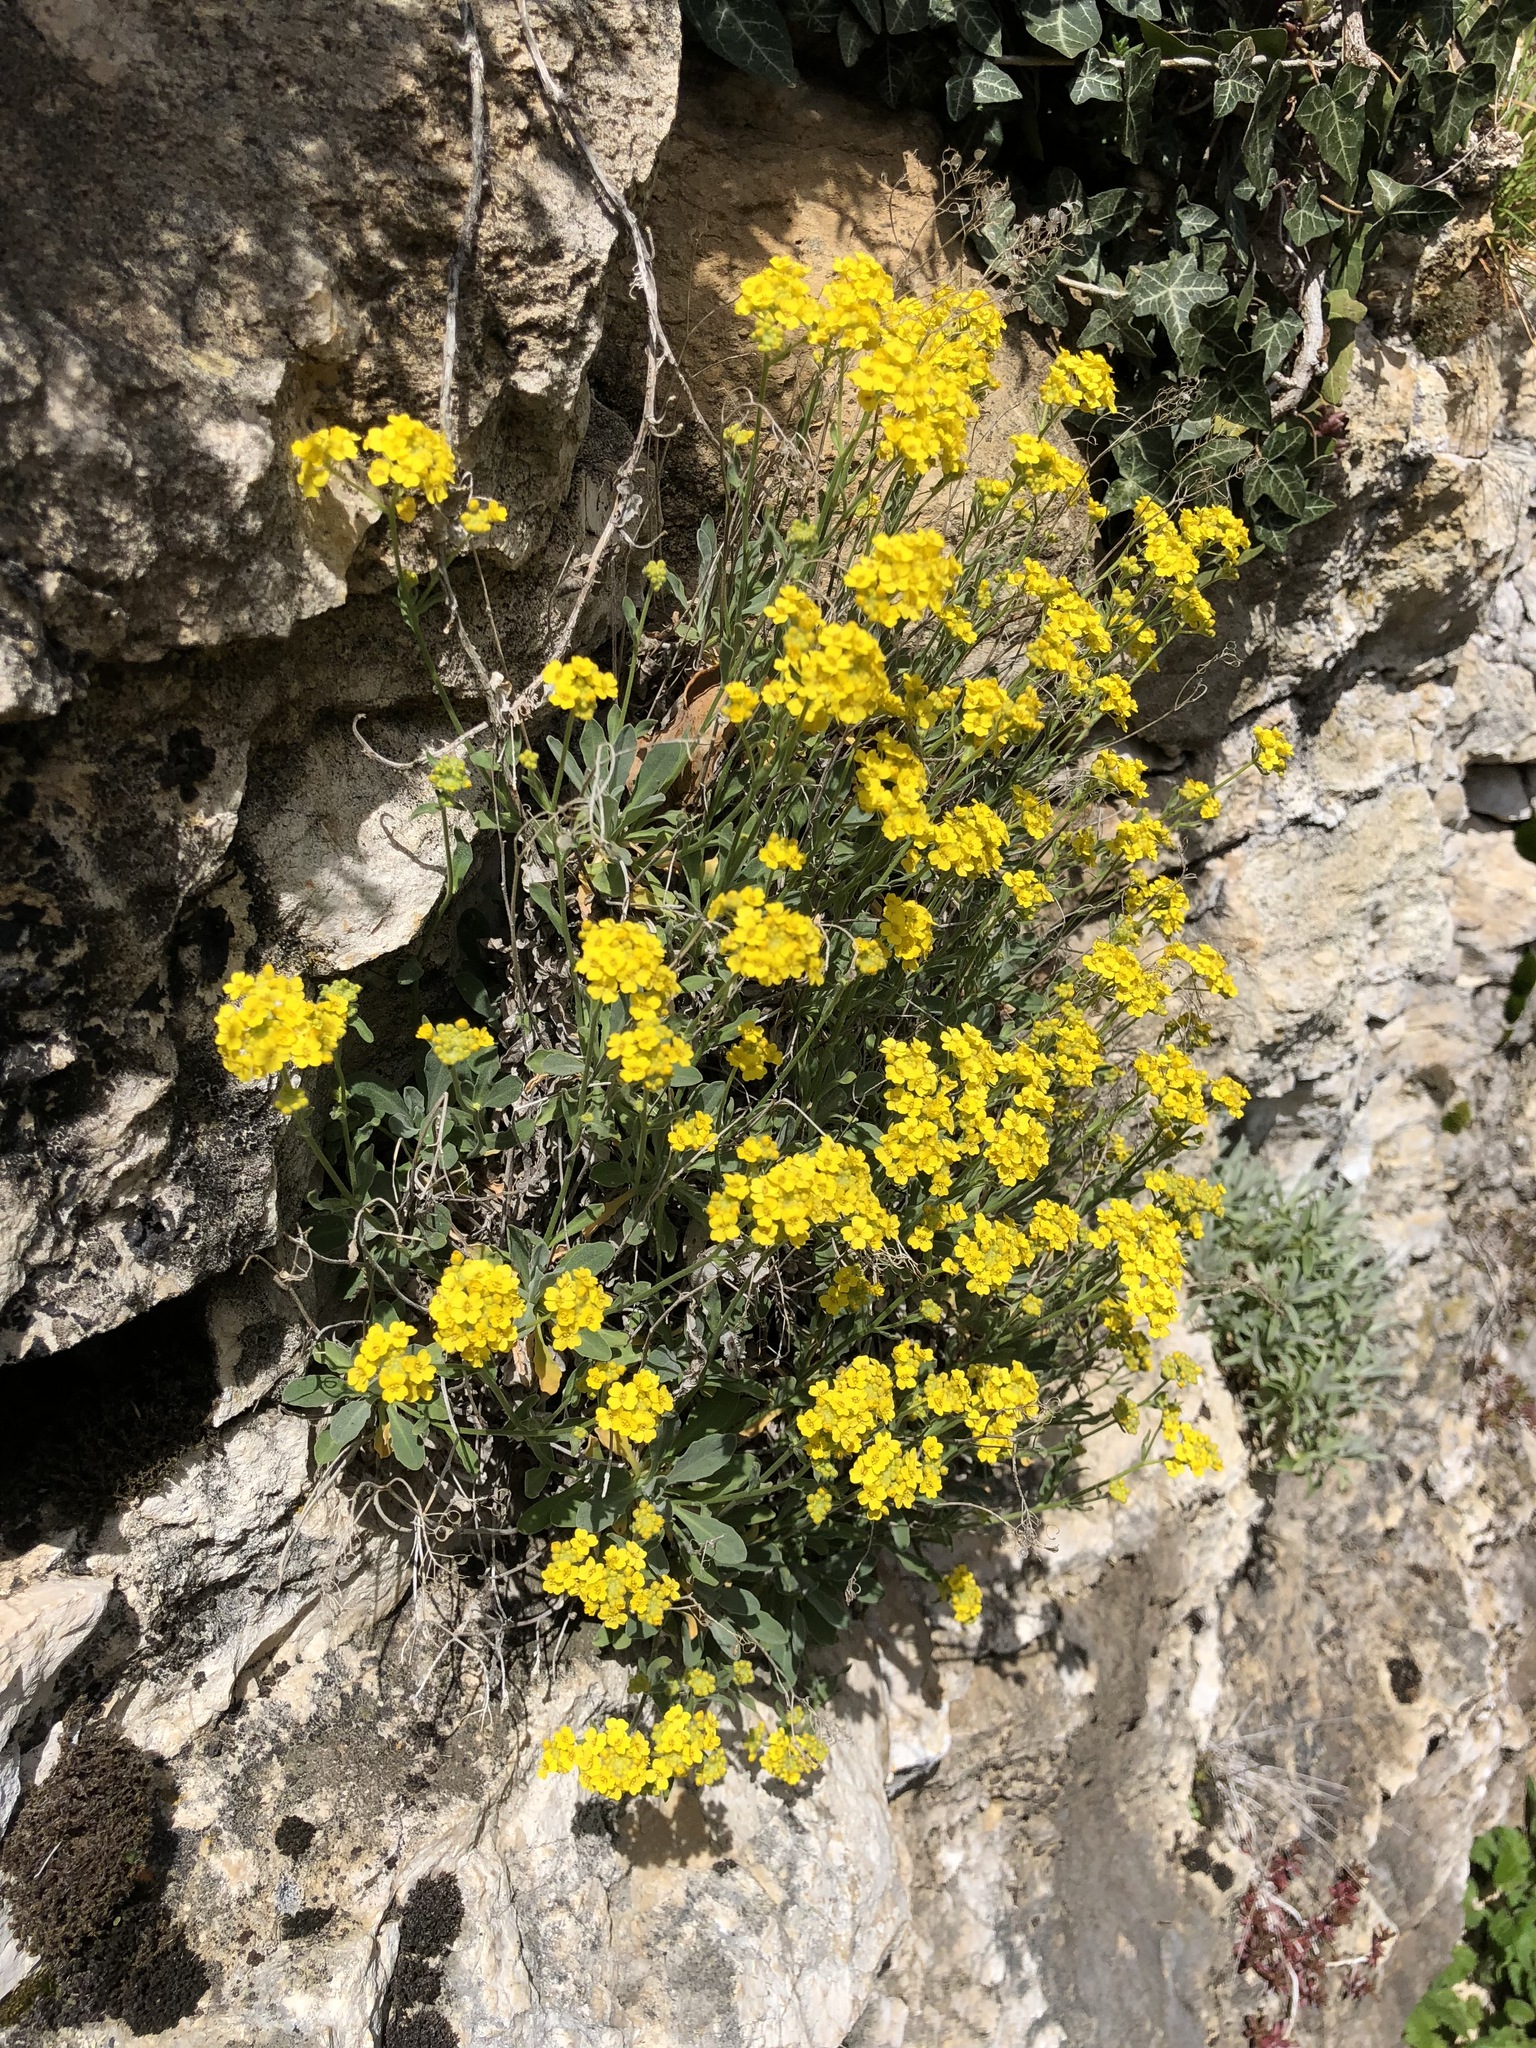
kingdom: Plantae
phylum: Tracheophyta
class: Magnoliopsida
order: Brassicales
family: Brassicaceae
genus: Aurinia
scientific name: Aurinia saxatilis
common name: Golden-tuft alyssum
